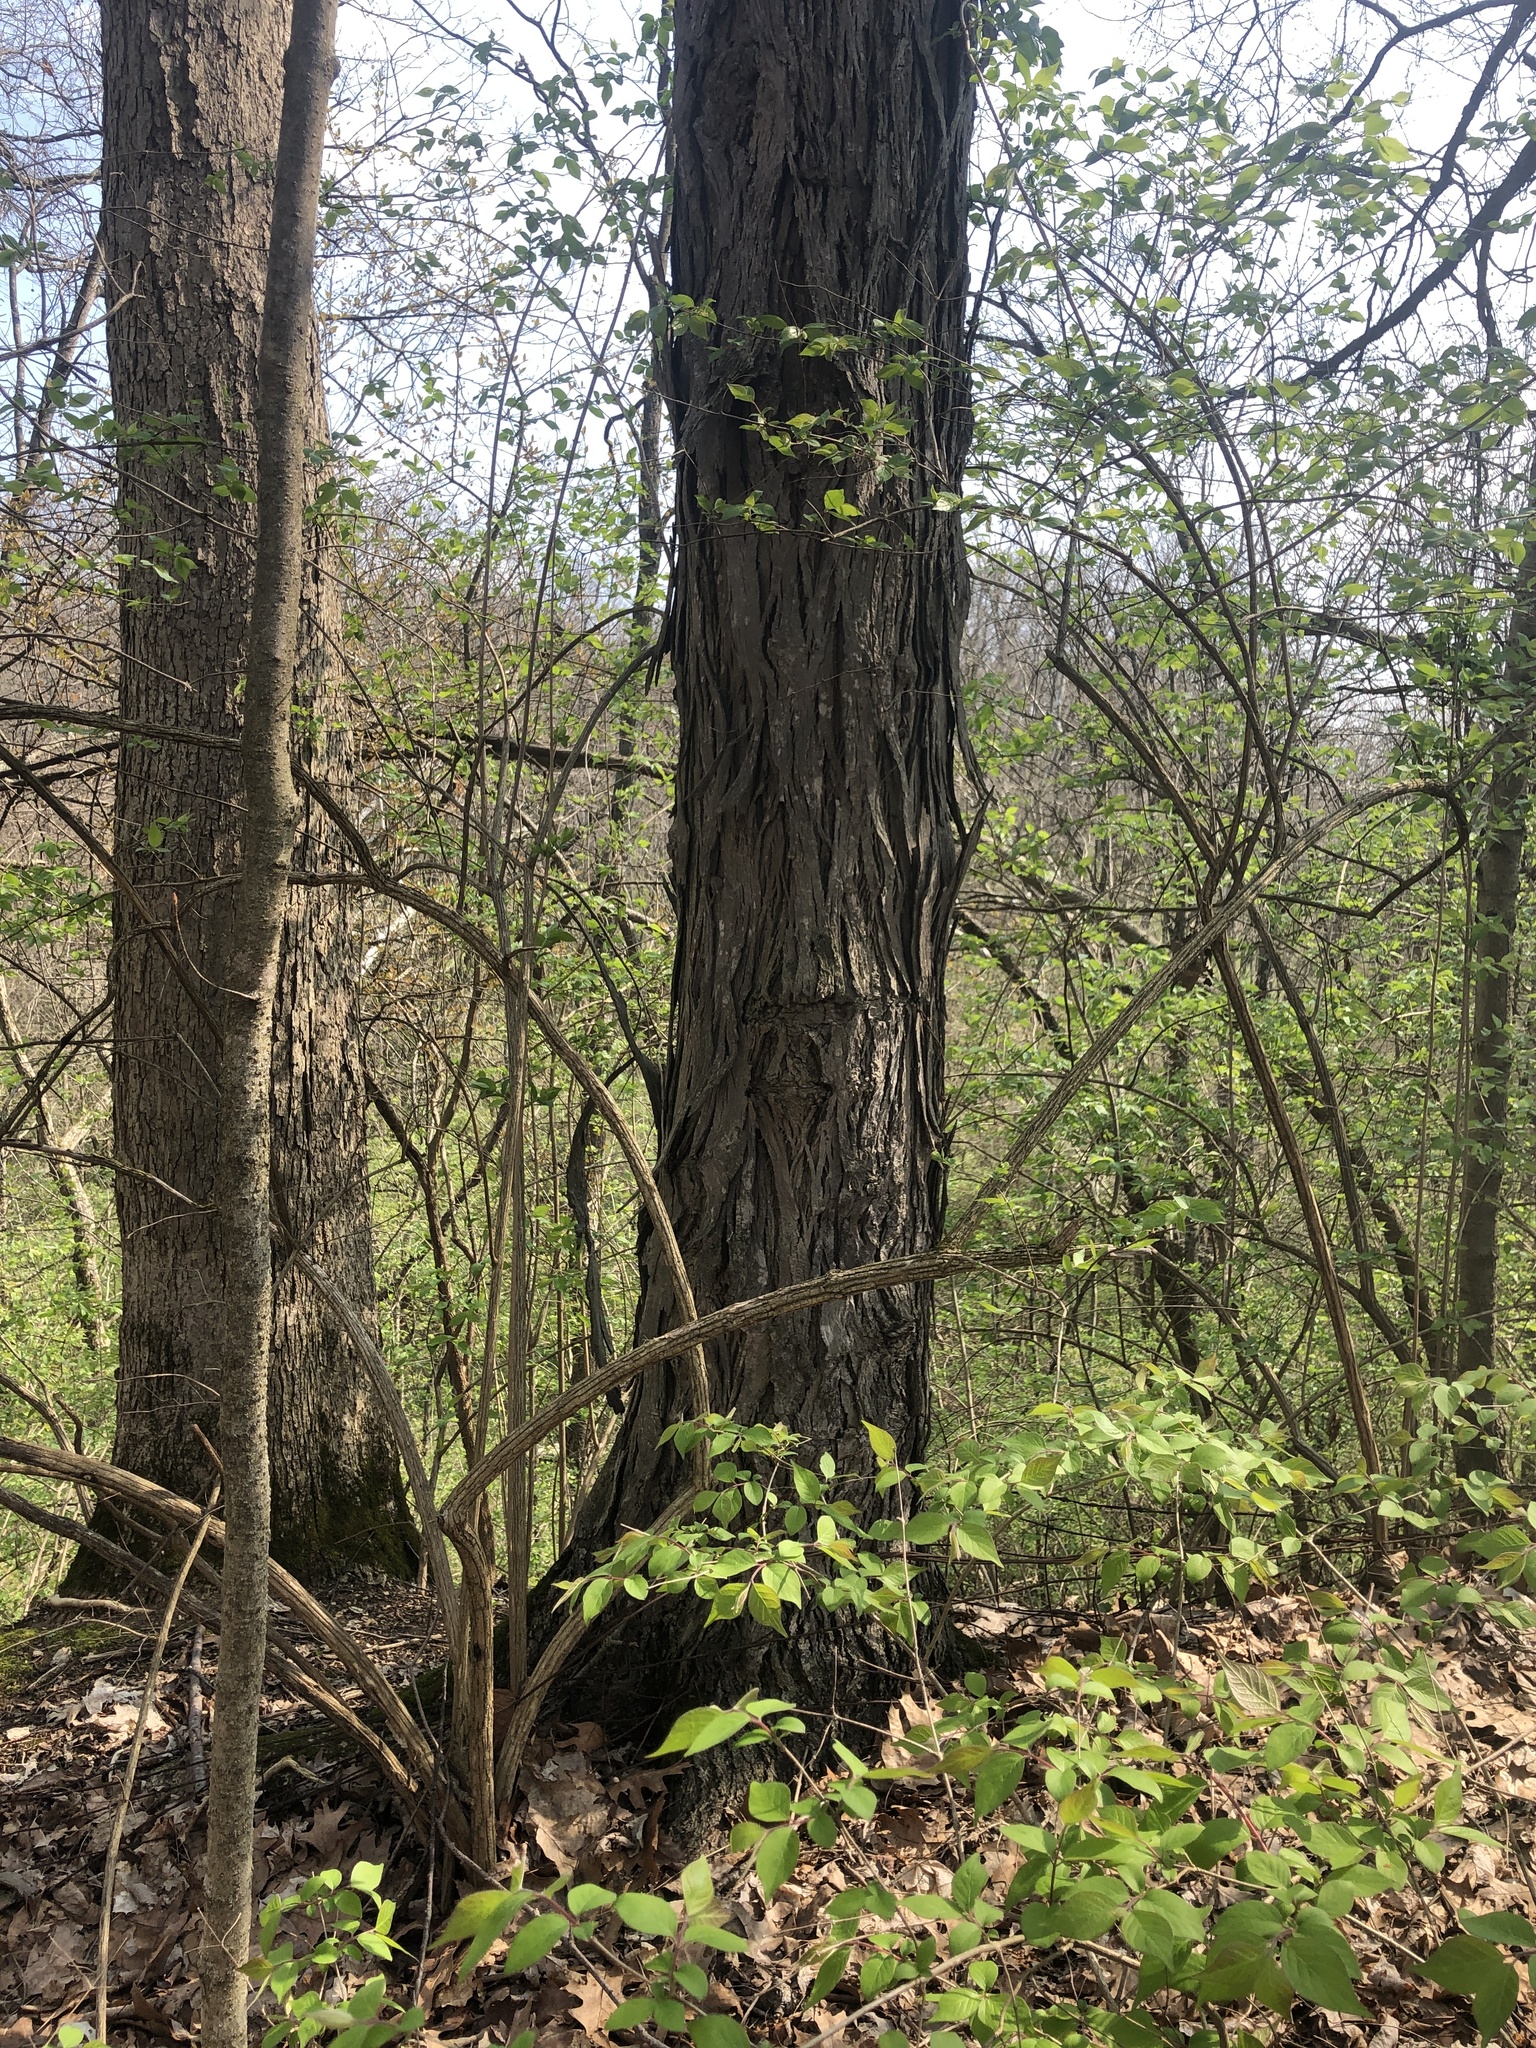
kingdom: Plantae
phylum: Tracheophyta
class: Magnoliopsida
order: Fagales
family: Juglandaceae
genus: Carya
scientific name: Carya ovata
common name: Shagbark hickory
